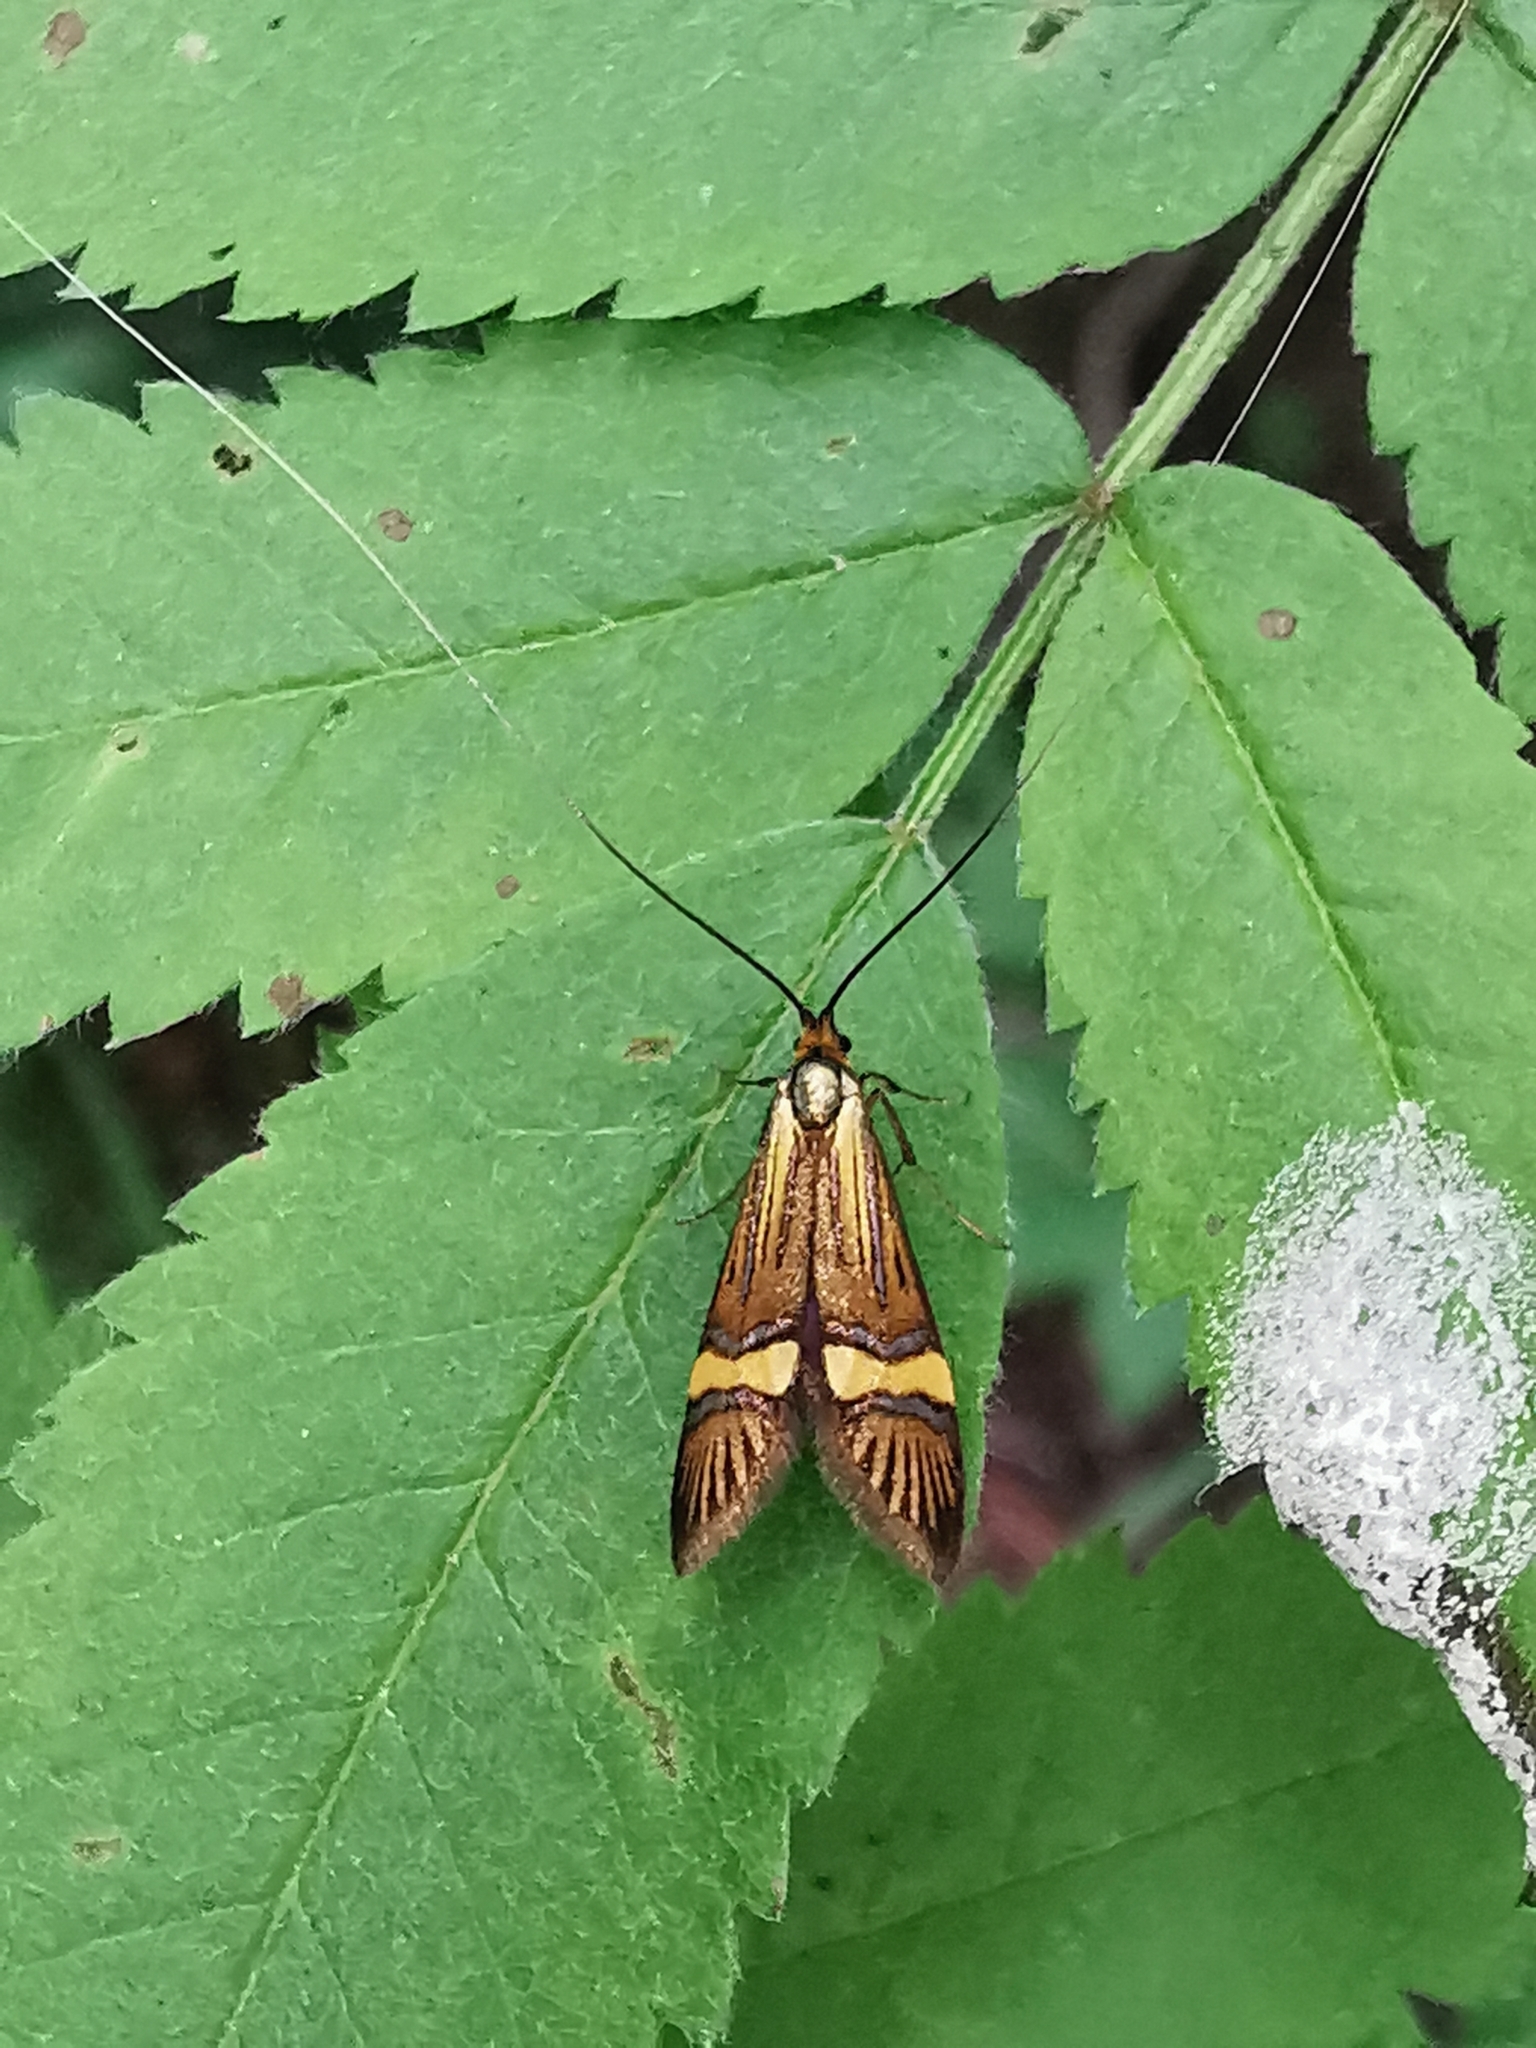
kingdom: Animalia
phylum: Arthropoda
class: Insecta
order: Lepidoptera
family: Adelidae
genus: Nemophora
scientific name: Nemophora degeerella
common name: Yellow-barred long-horn
